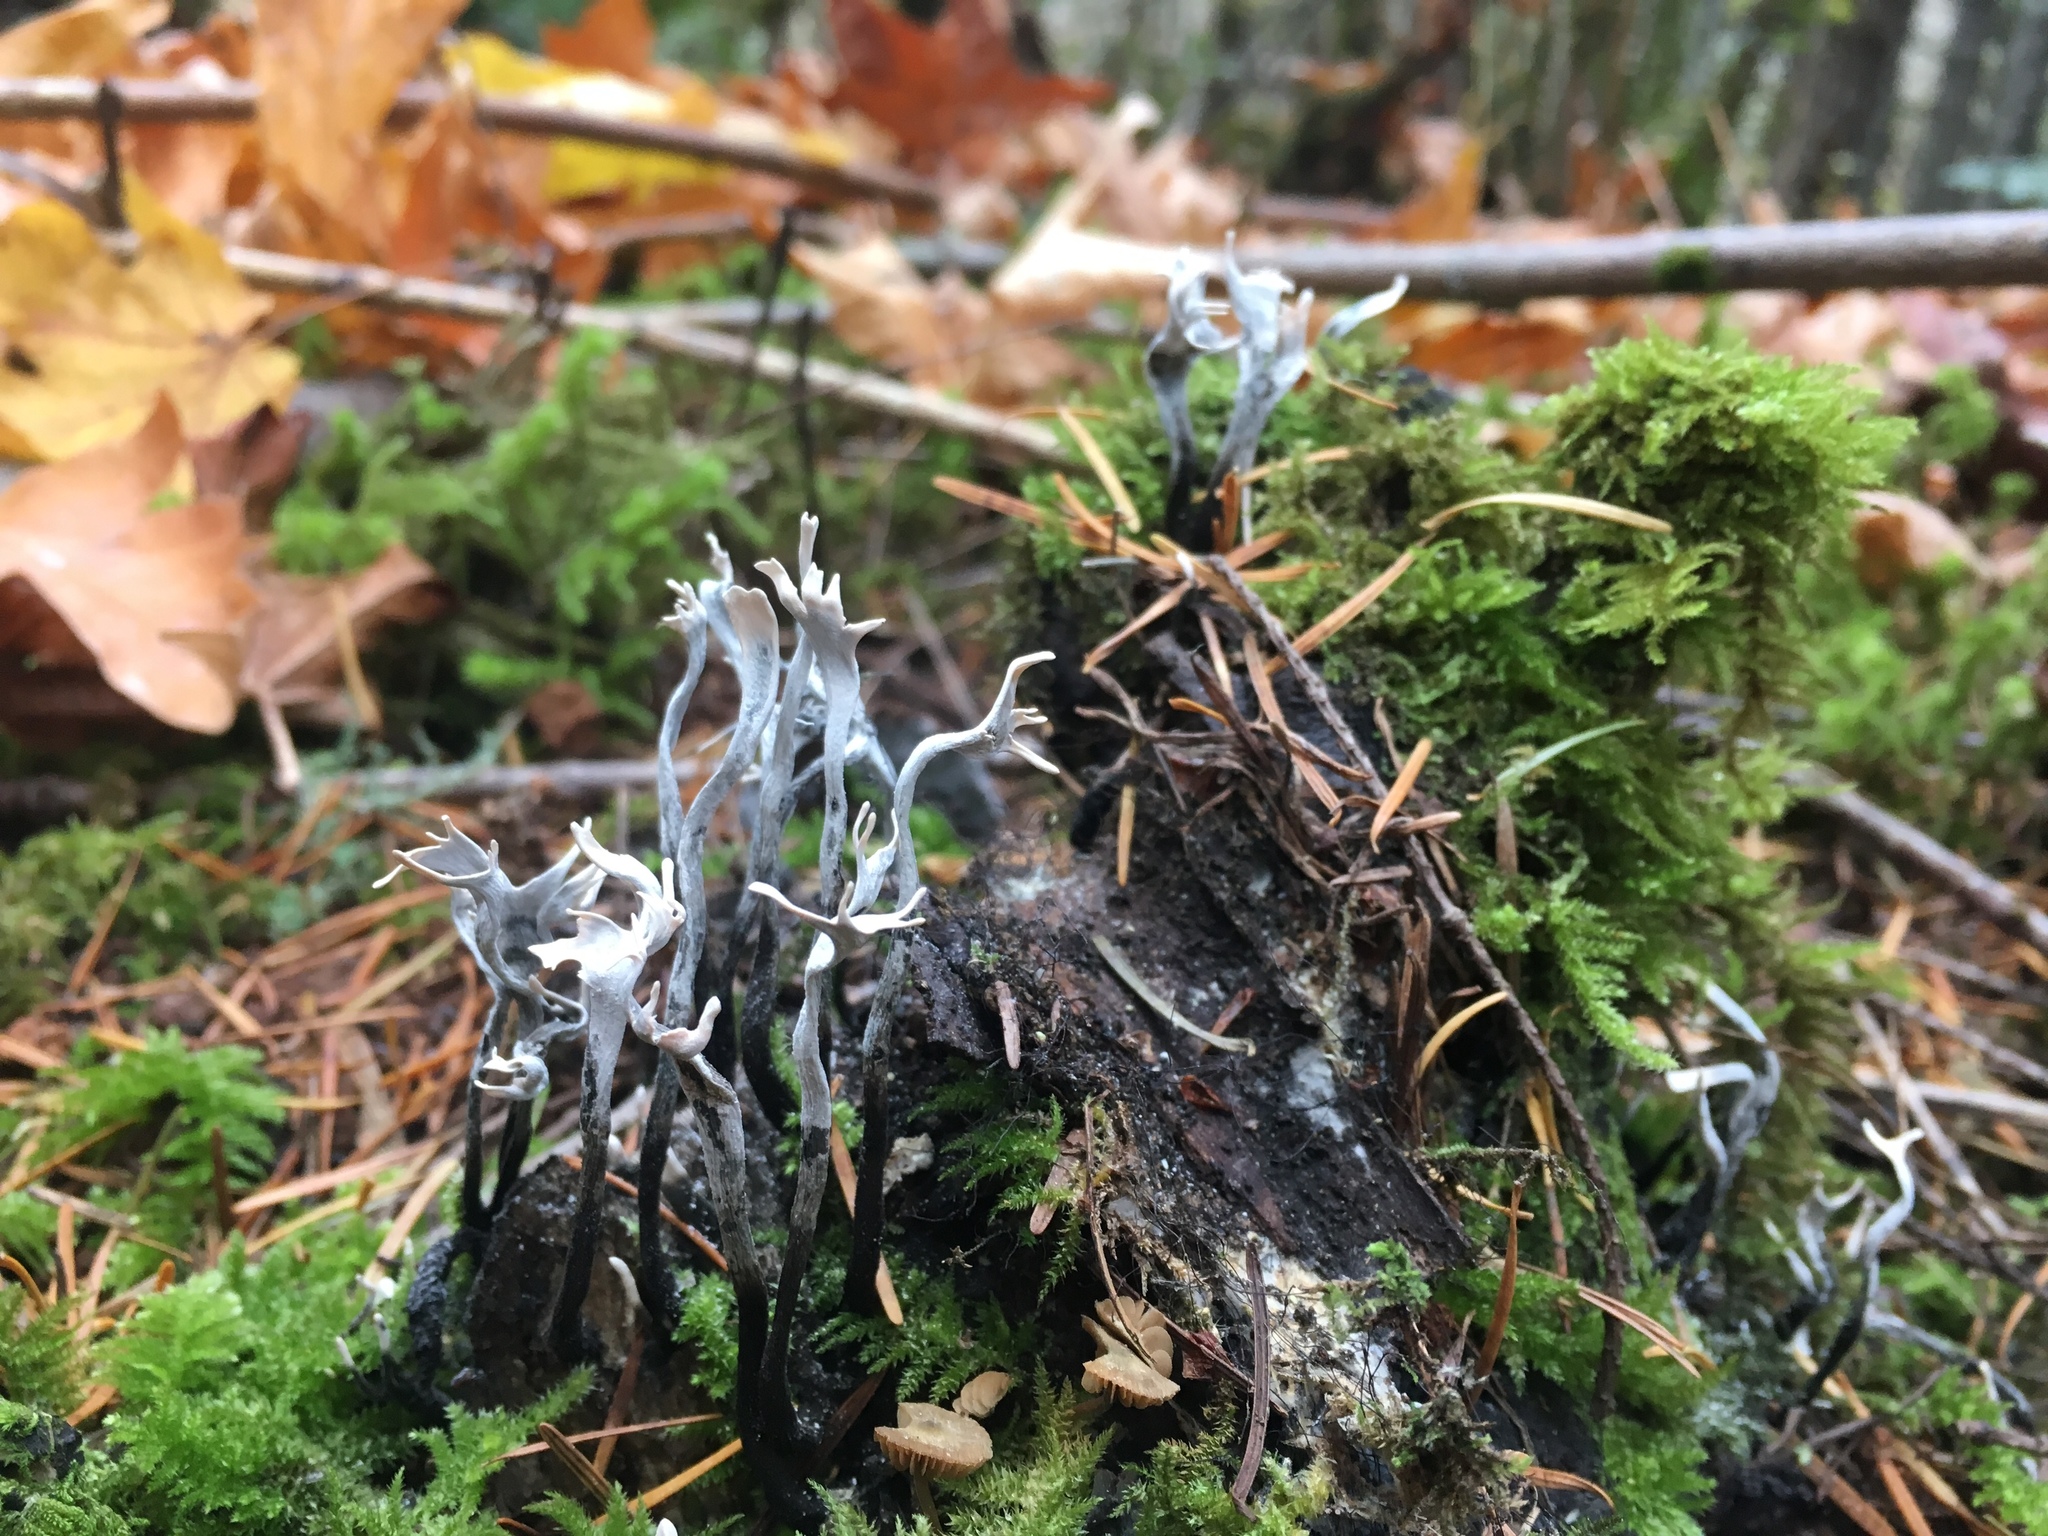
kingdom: Fungi
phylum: Ascomycota
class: Sordariomycetes
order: Xylariales
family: Xylariaceae
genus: Xylaria
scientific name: Xylaria hypoxylon
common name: Candle-snuff fungus
